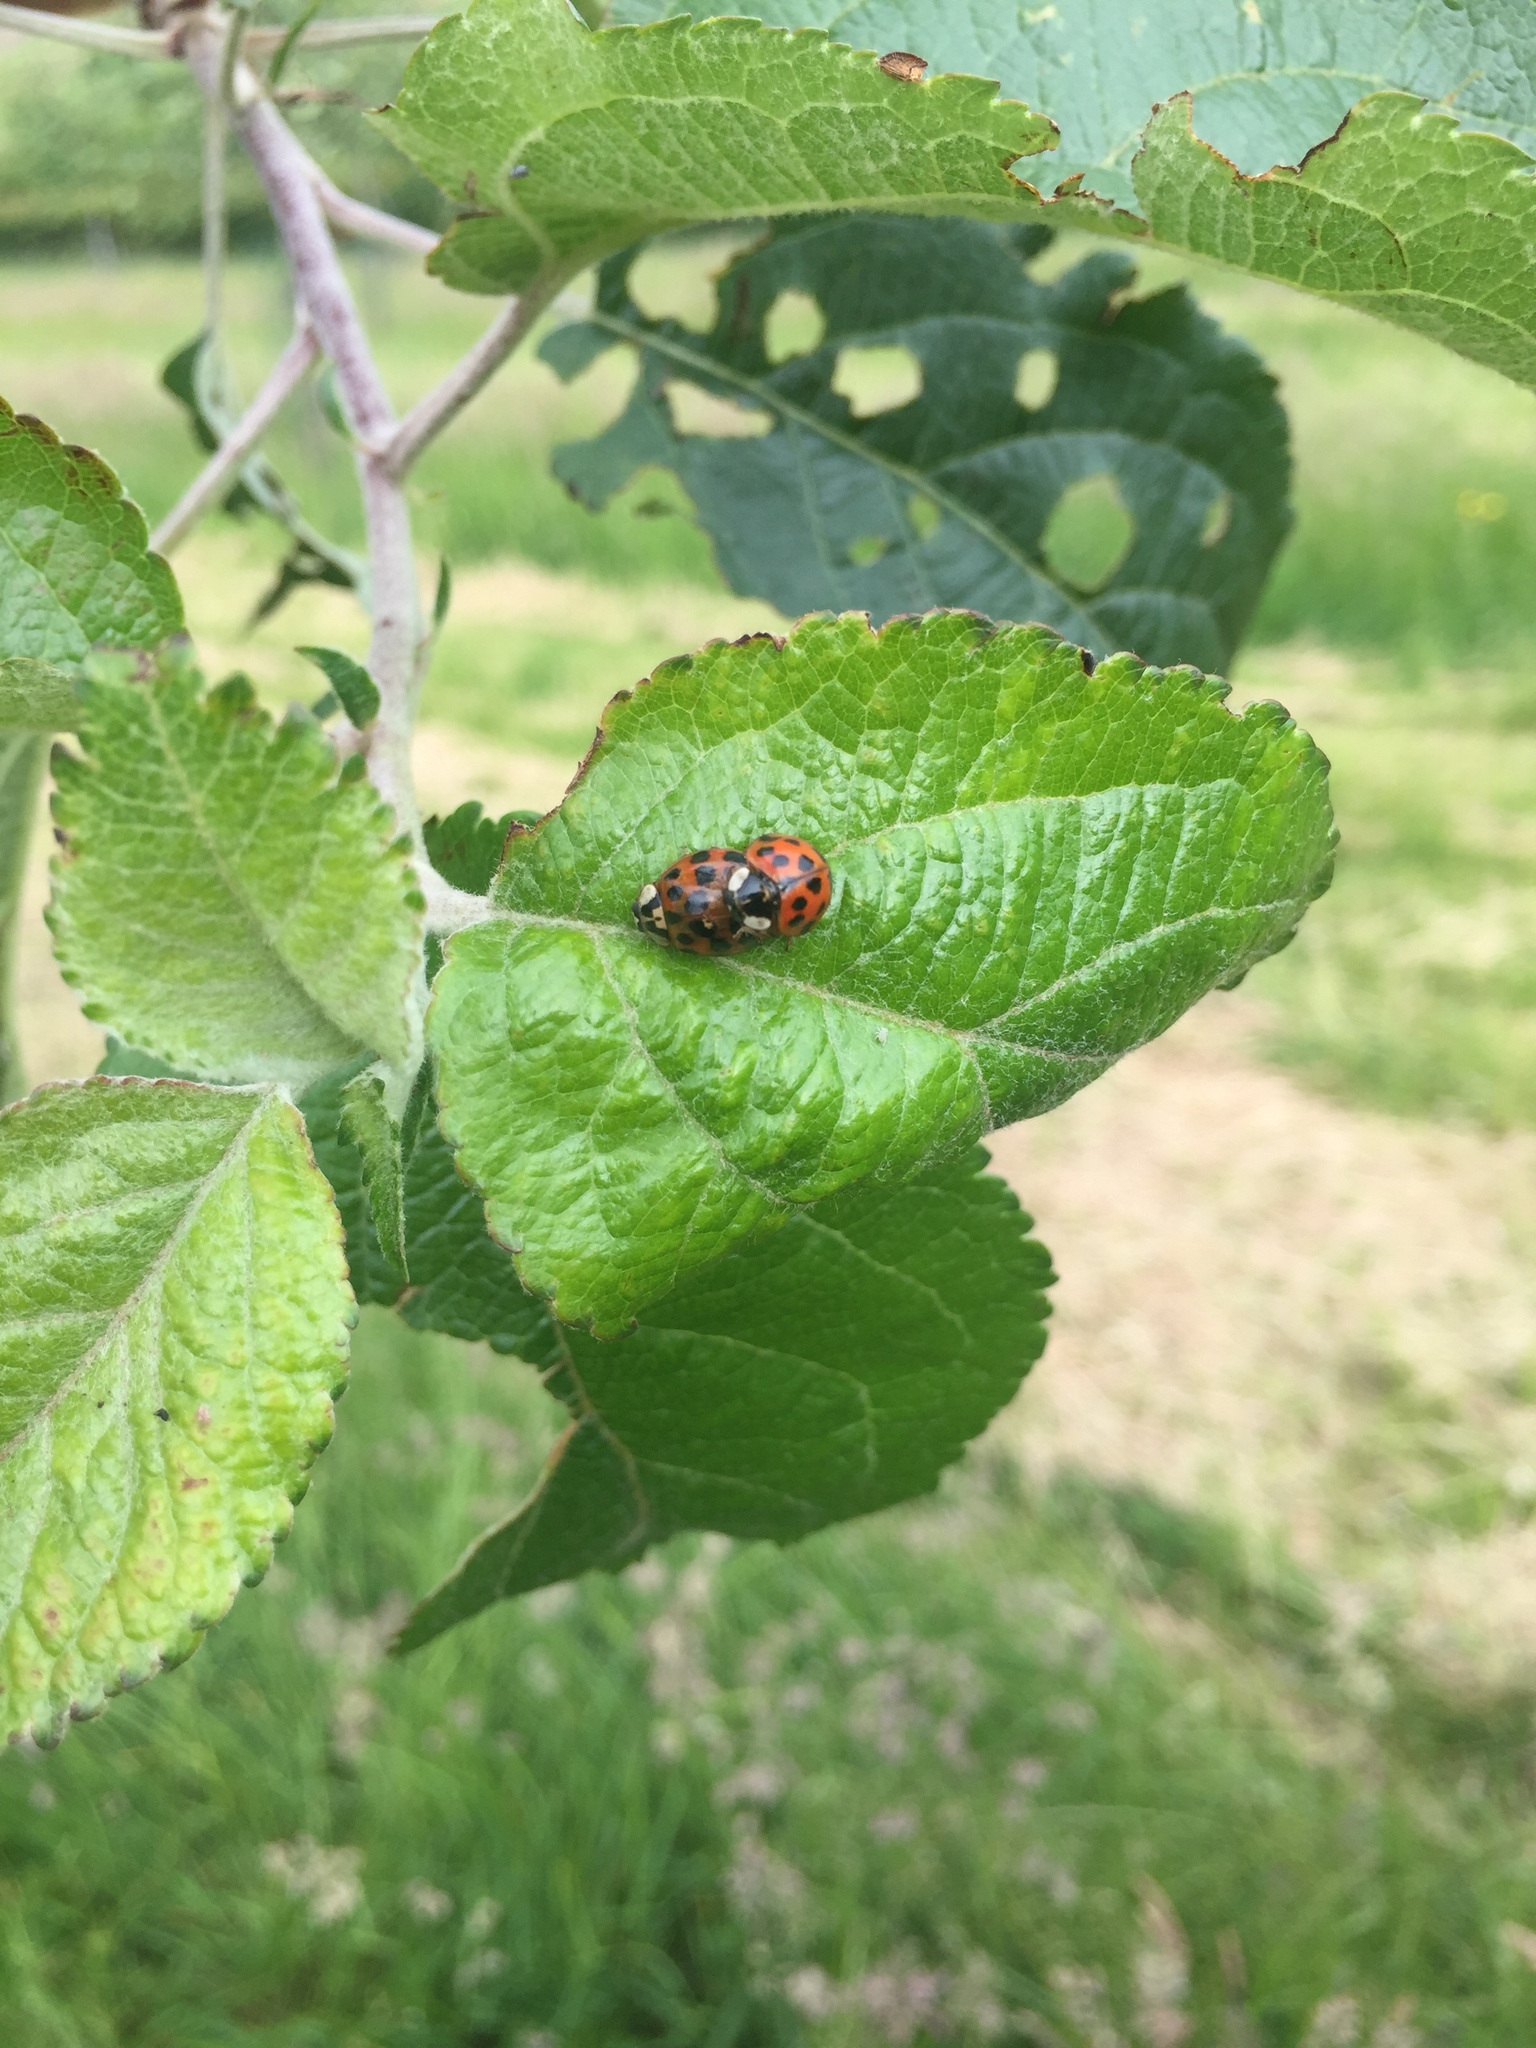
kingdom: Animalia
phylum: Arthropoda
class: Insecta
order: Coleoptera
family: Coccinellidae
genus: Harmonia
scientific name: Harmonia axyridis
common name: Harlequin ladybird
